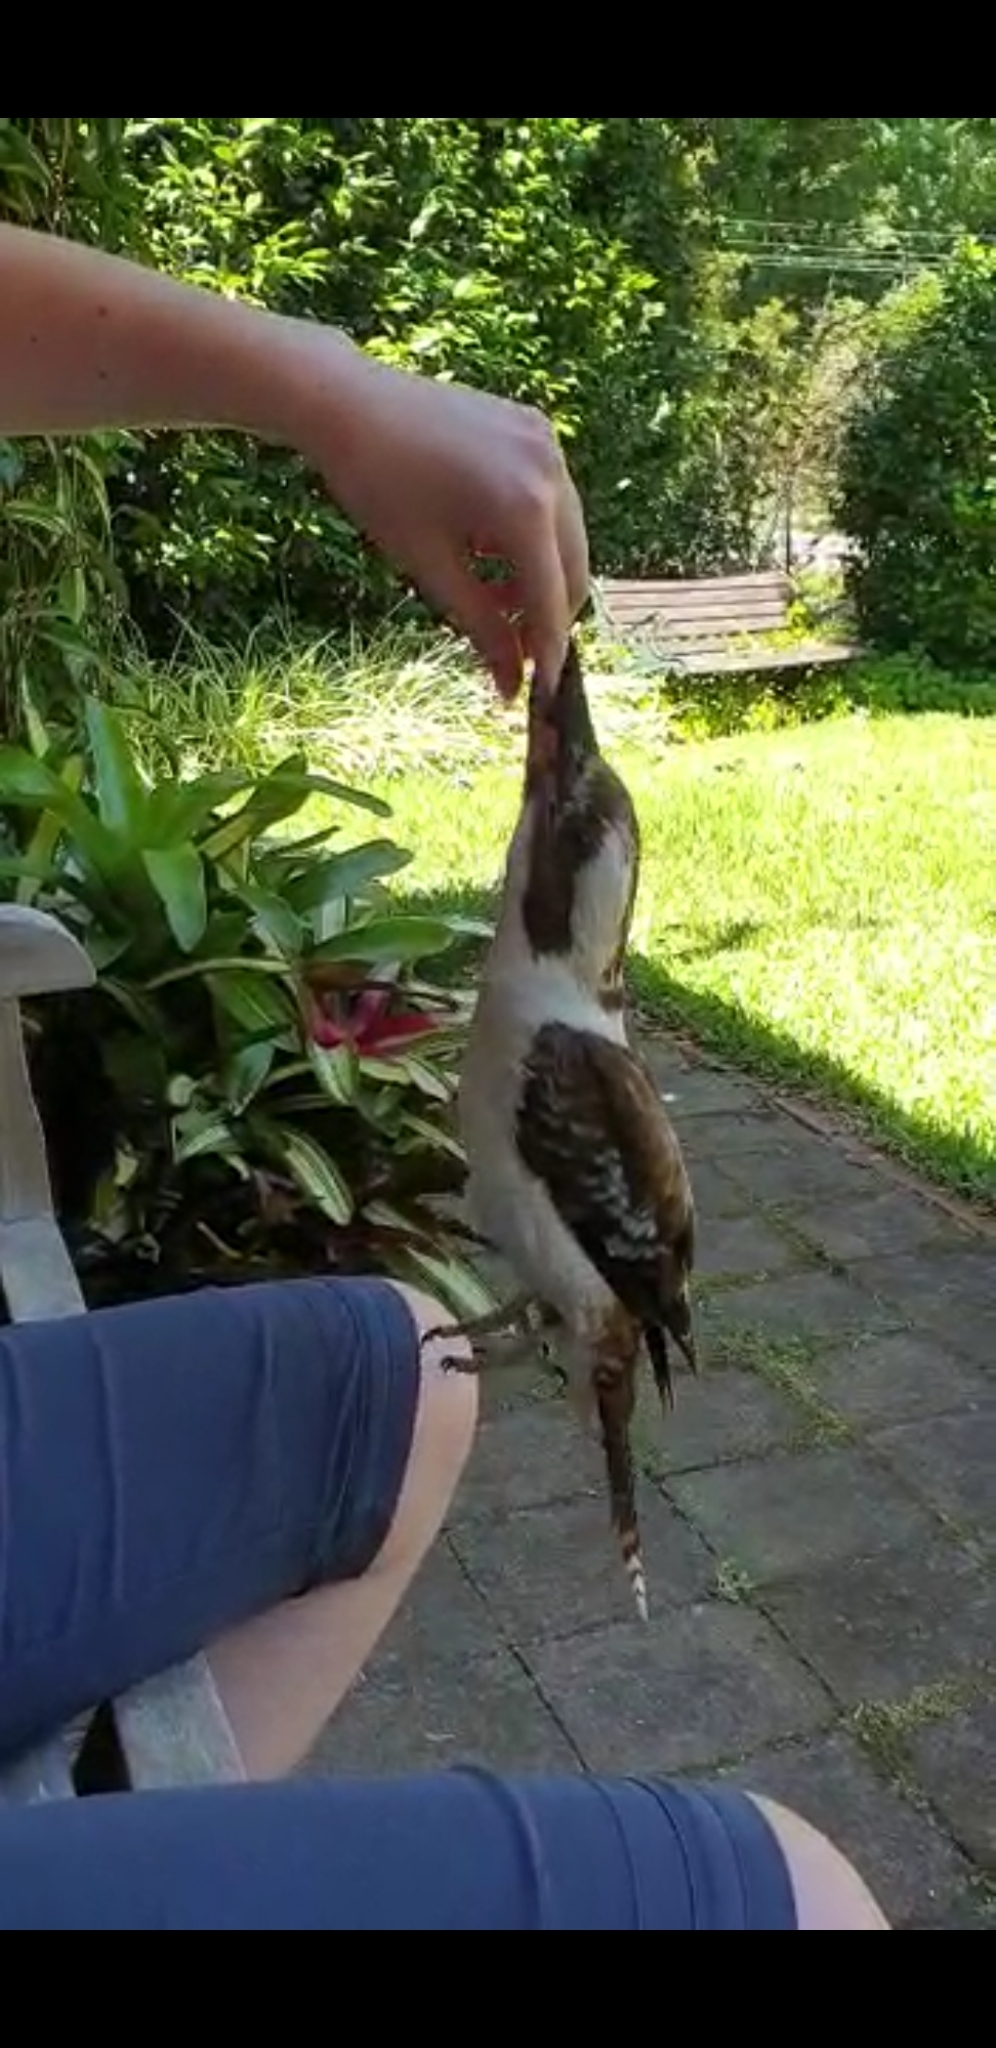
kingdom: Animalia
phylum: Chordata
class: Aves
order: Coraciiformes
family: Alcedinidae
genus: Dacelo
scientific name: Dacelo novaeguineae
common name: Laughing kookaburra
